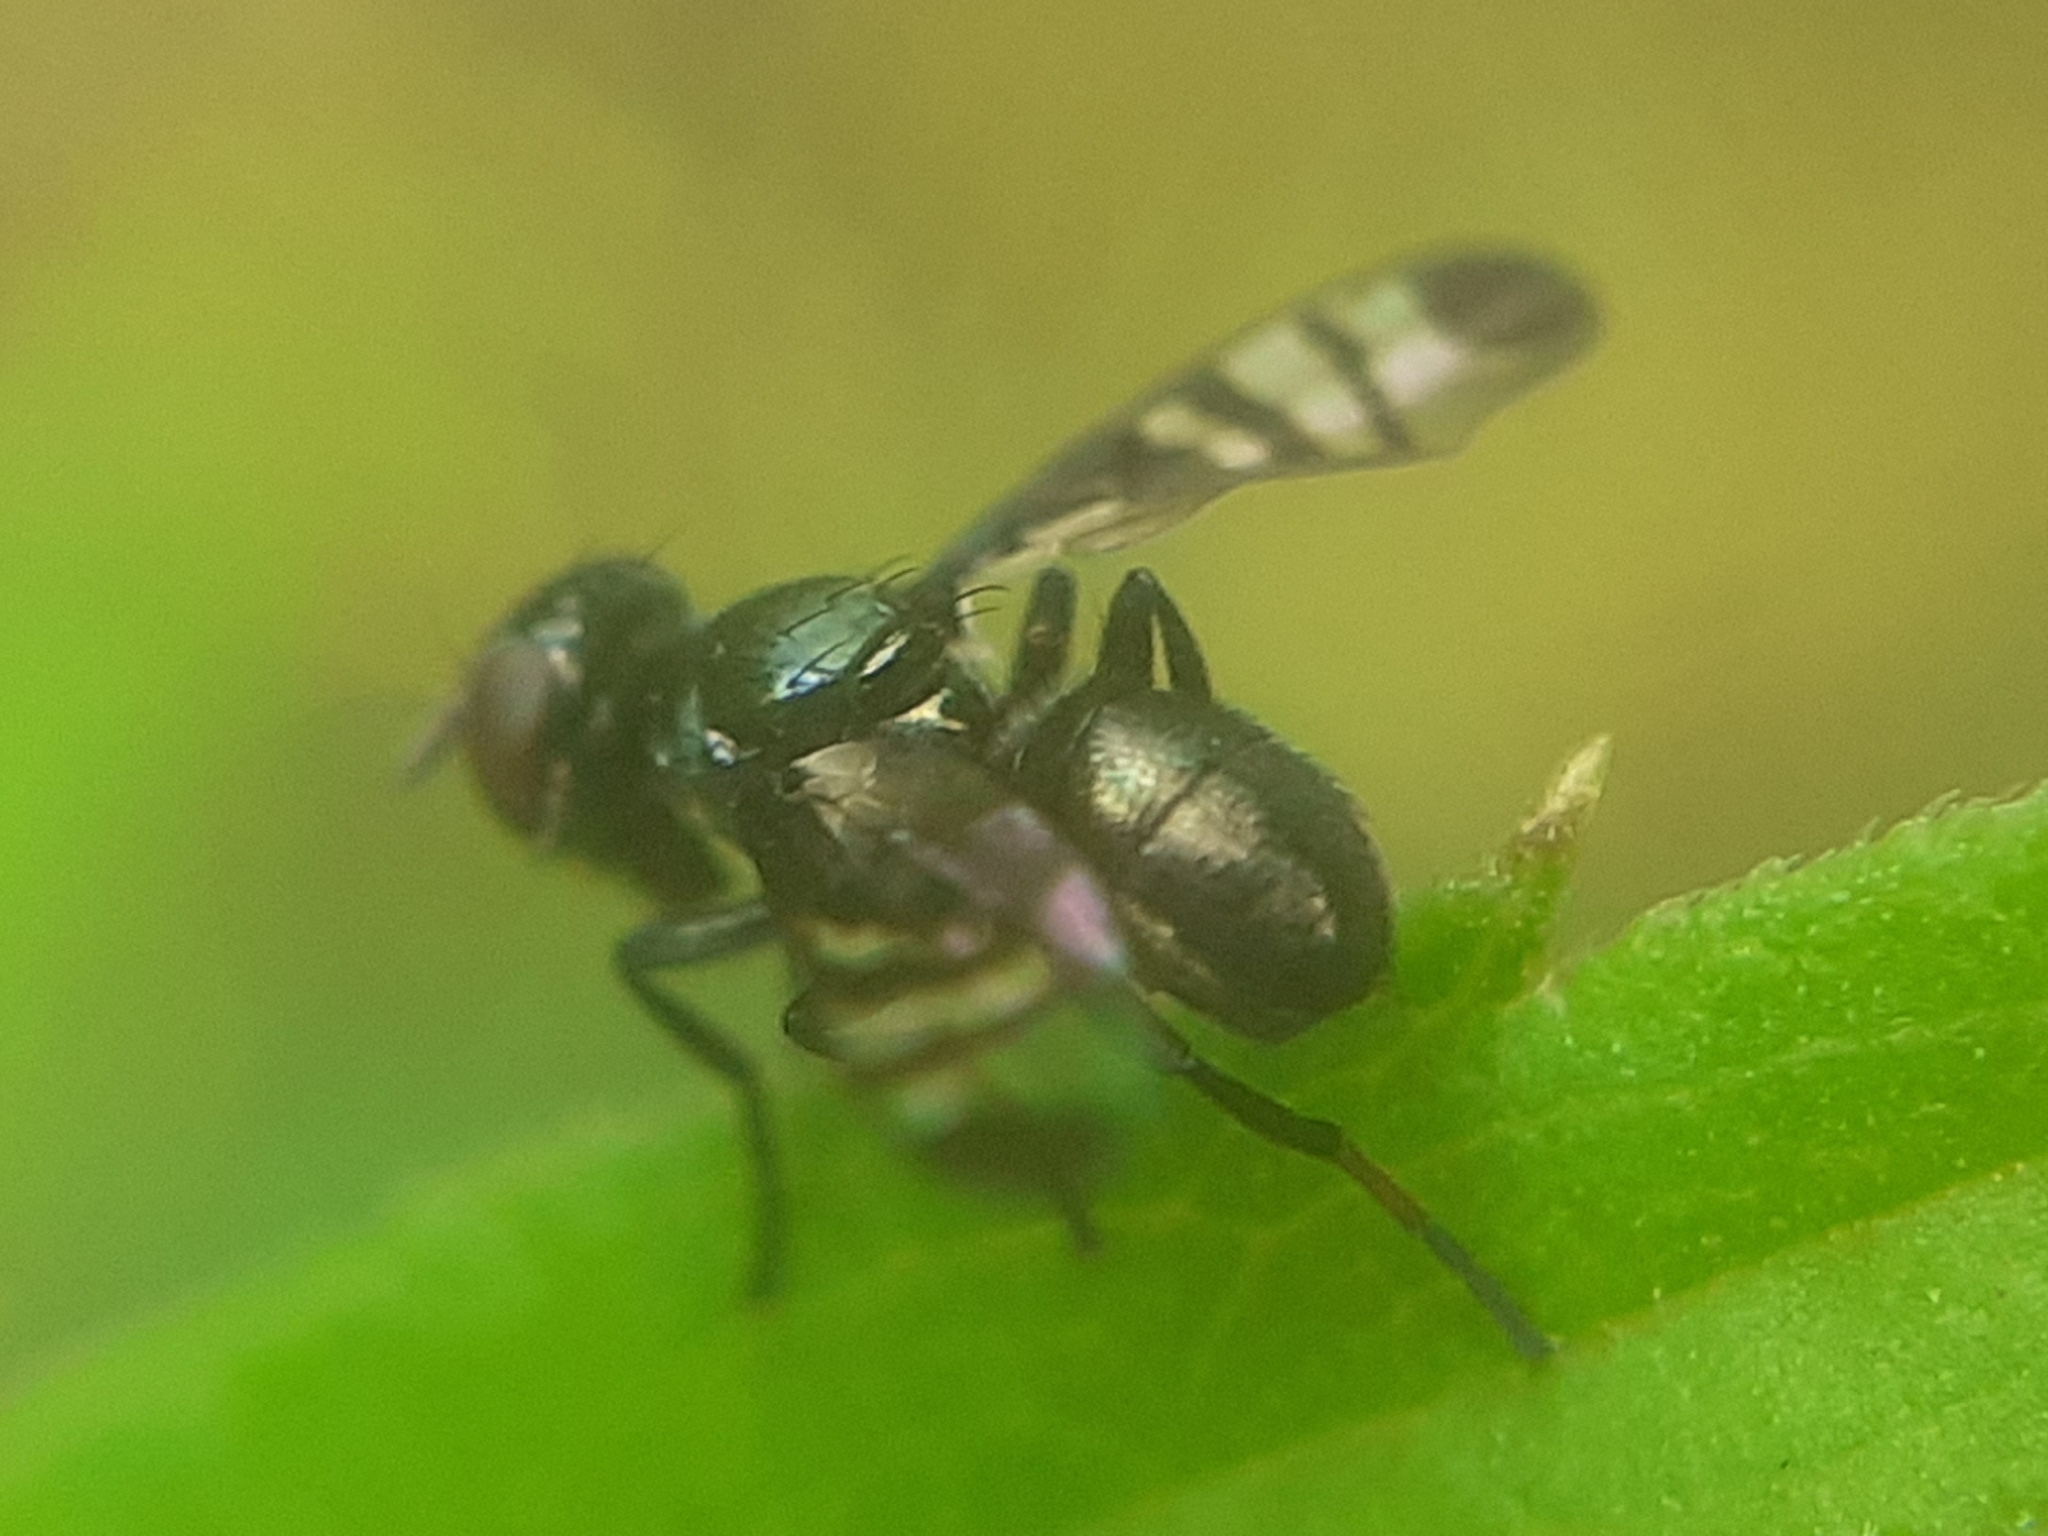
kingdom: Animalia
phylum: Arthropoda
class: Insecta
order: Diptera
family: Platystomatidae
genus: Rivellia
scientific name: Rivellia syngenesiae
